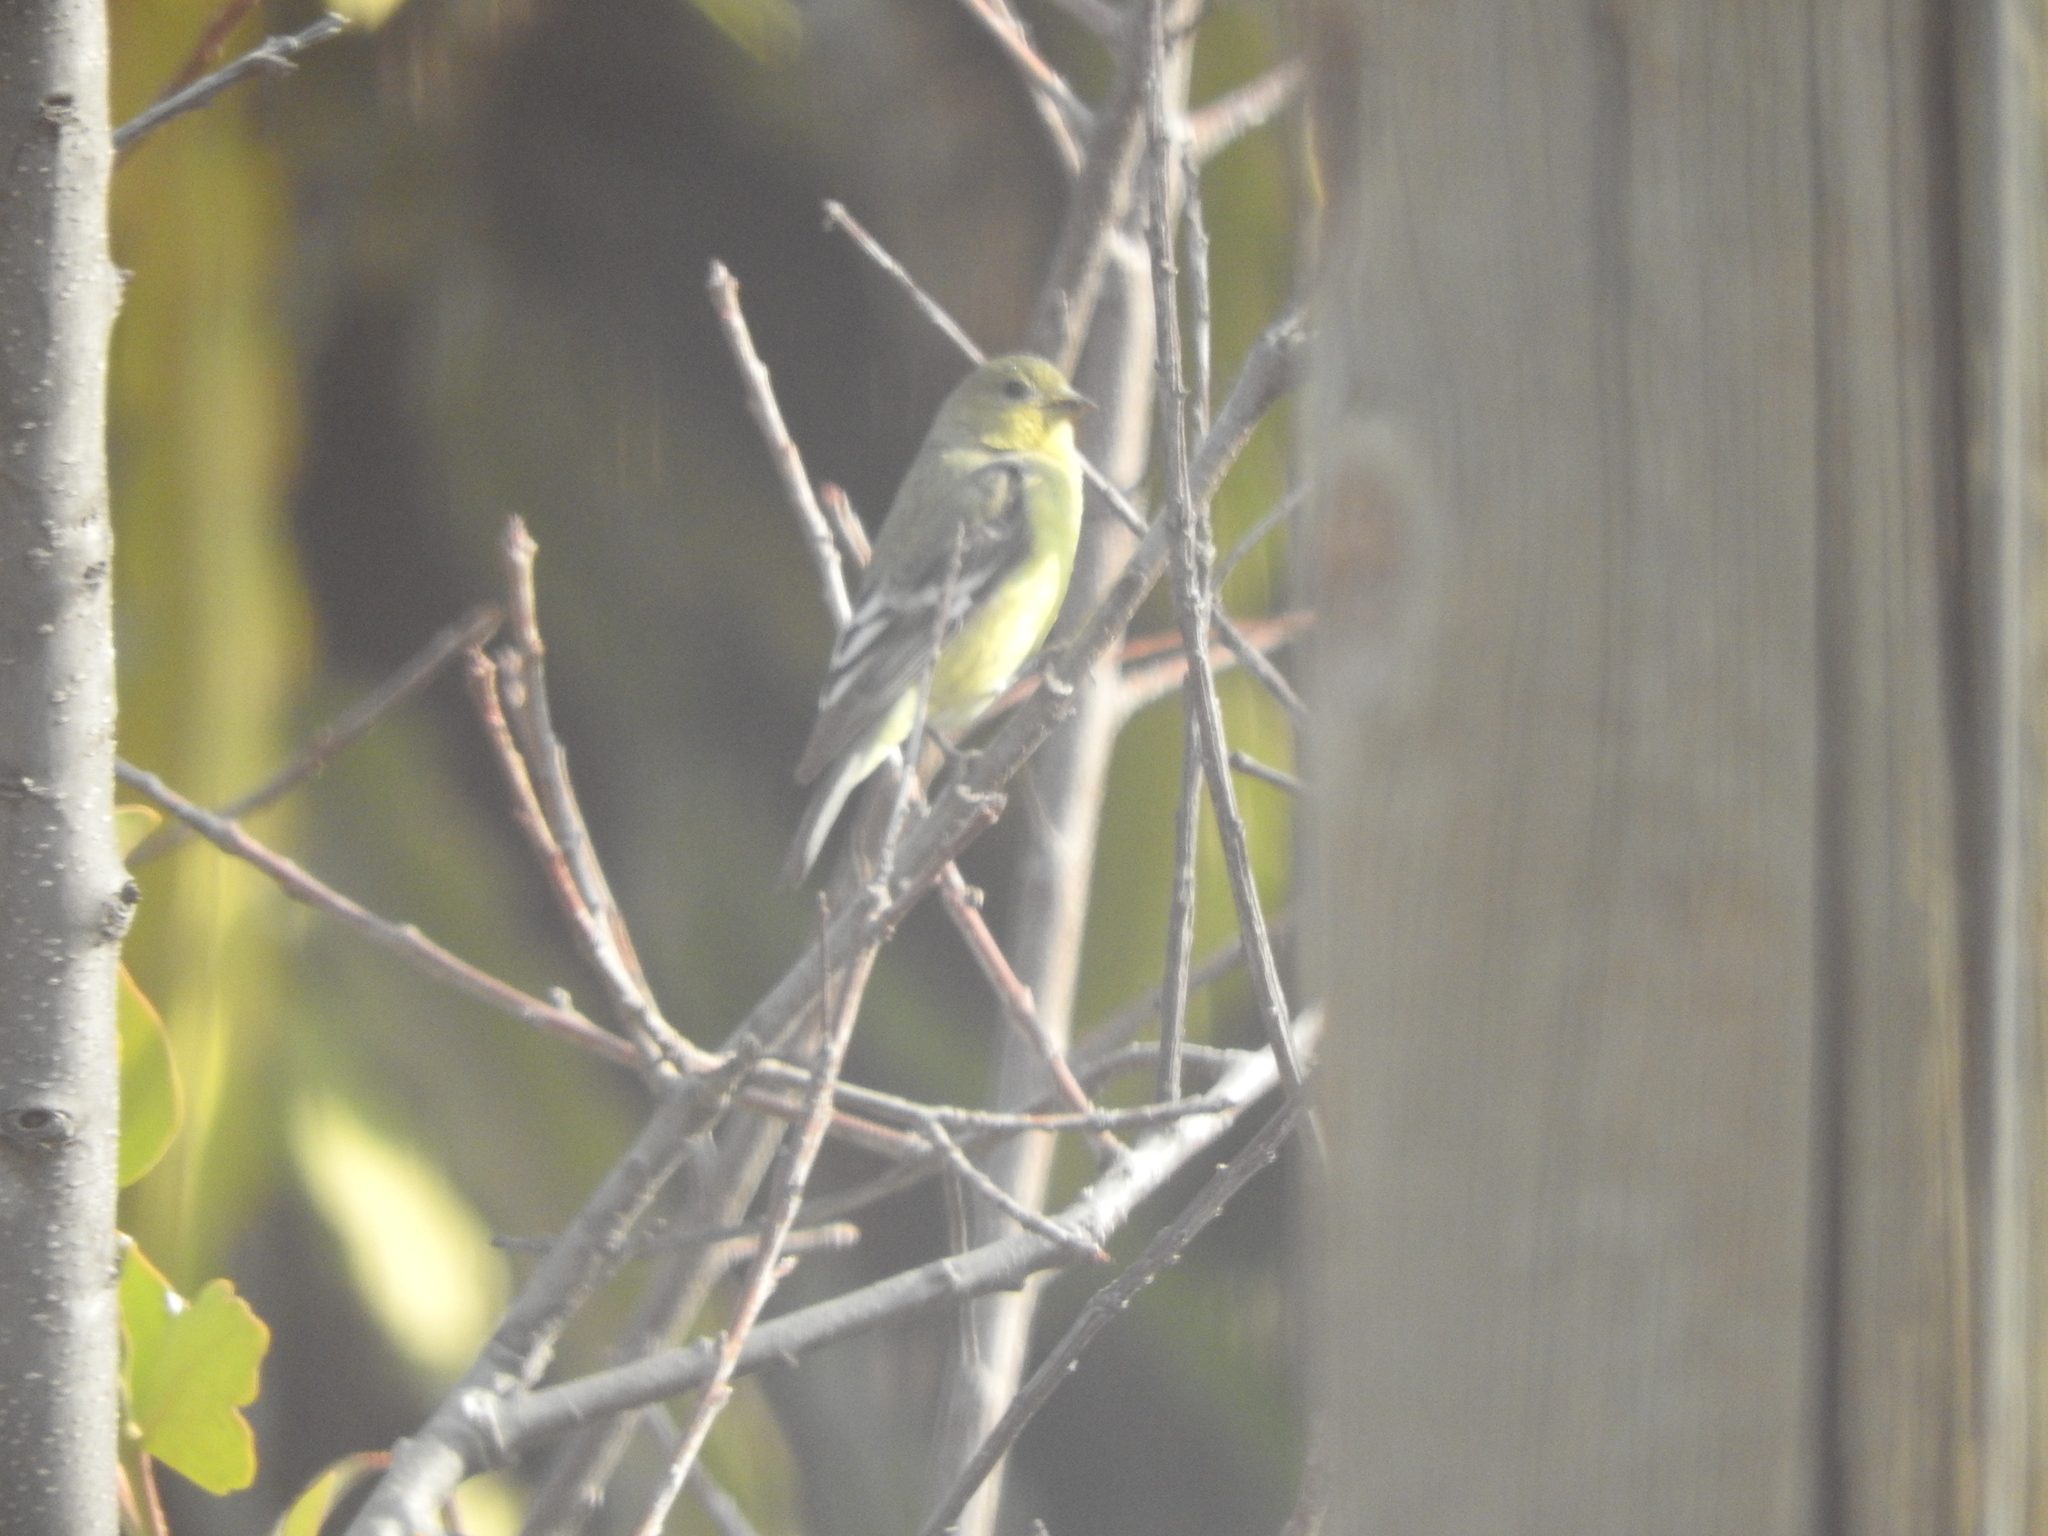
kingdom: Animalia
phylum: Chordata
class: Aves
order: Passeriformes
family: Fringillidae
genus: Spinus
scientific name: Spinus psaltria
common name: Lesser goldfinch
